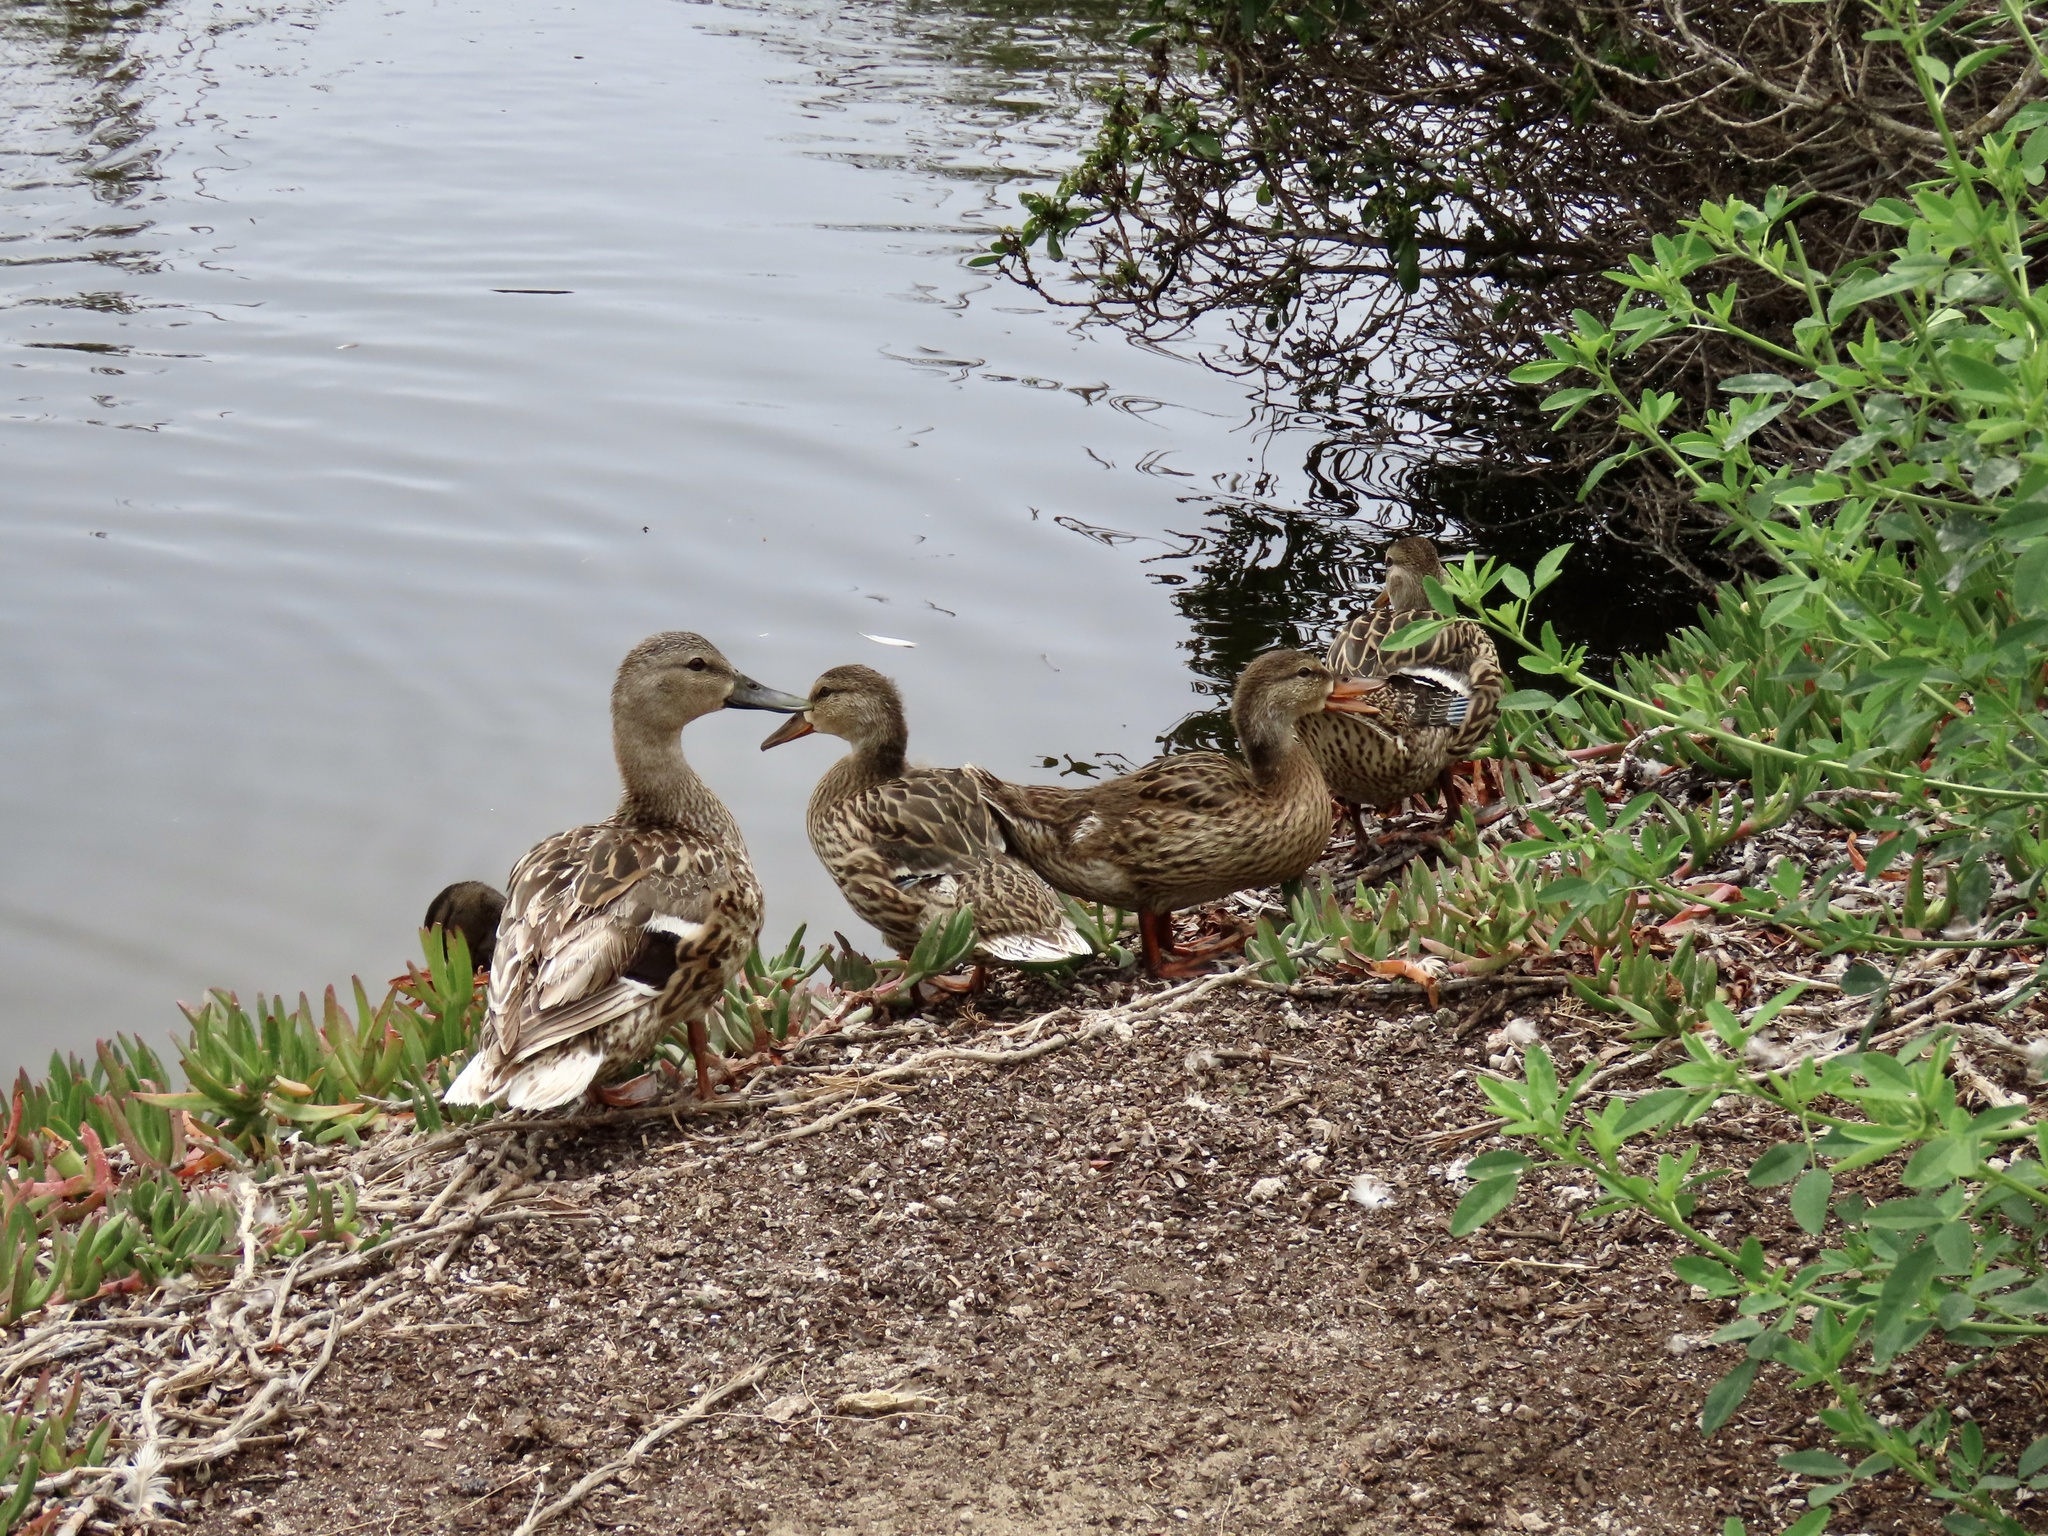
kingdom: Animalia
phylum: Chordata
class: Aves
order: Anseriformes
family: Anatidae
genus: Anas
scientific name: Anas platyrhynchos
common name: Mallard
